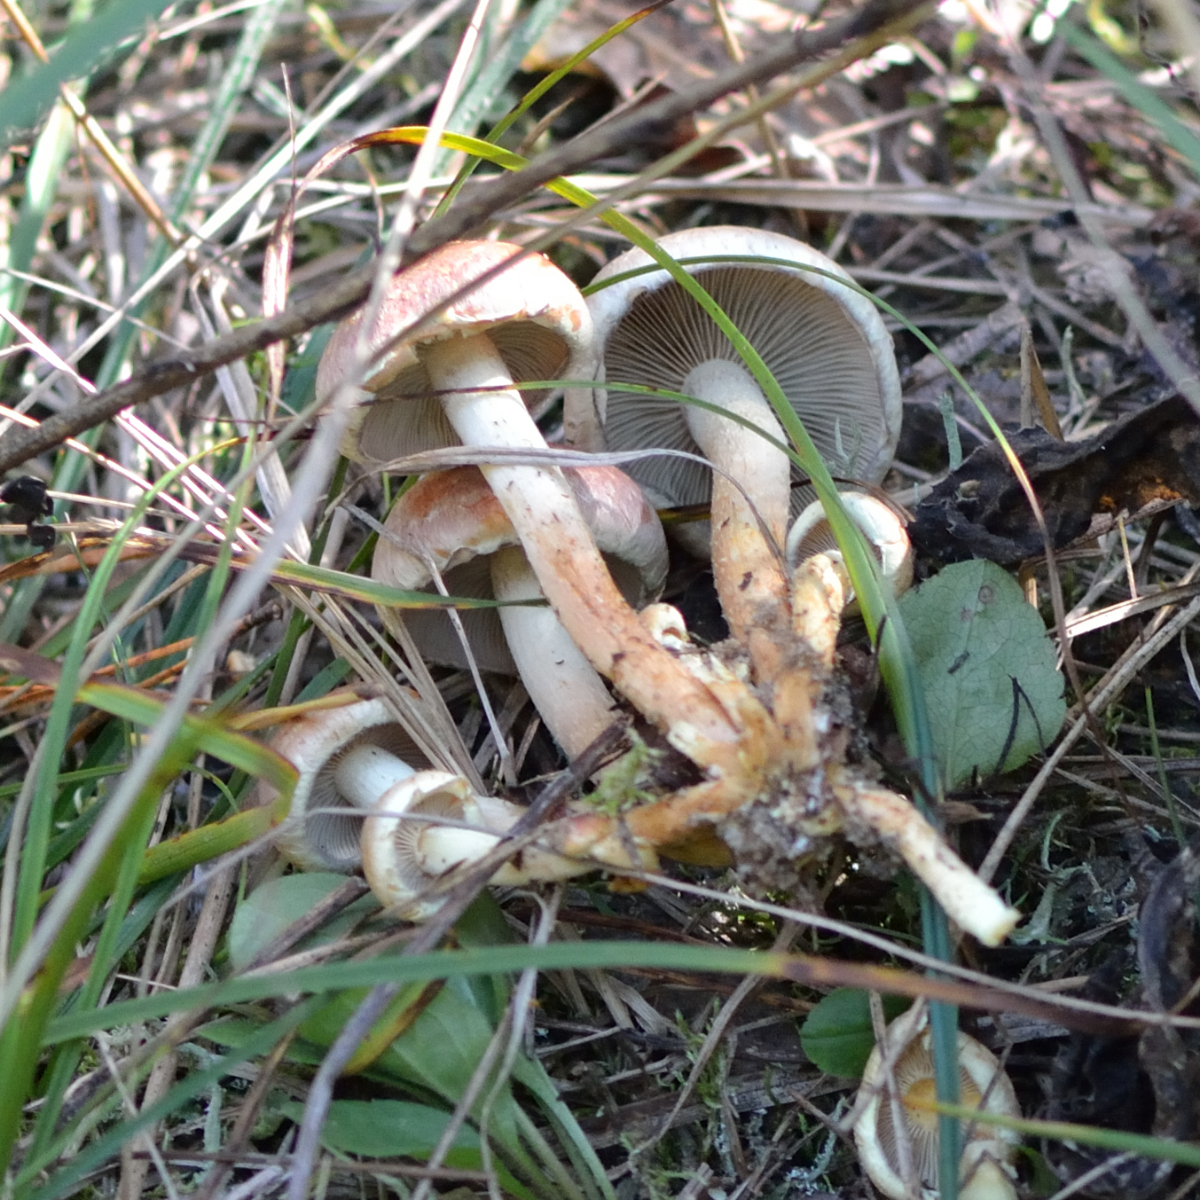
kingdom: Fungi
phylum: Basidiomycota
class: Agaricomycetes
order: Agaricales
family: Strophariaceae
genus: Hypholoma
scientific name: Hypholoma lateritium
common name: Brick caps
